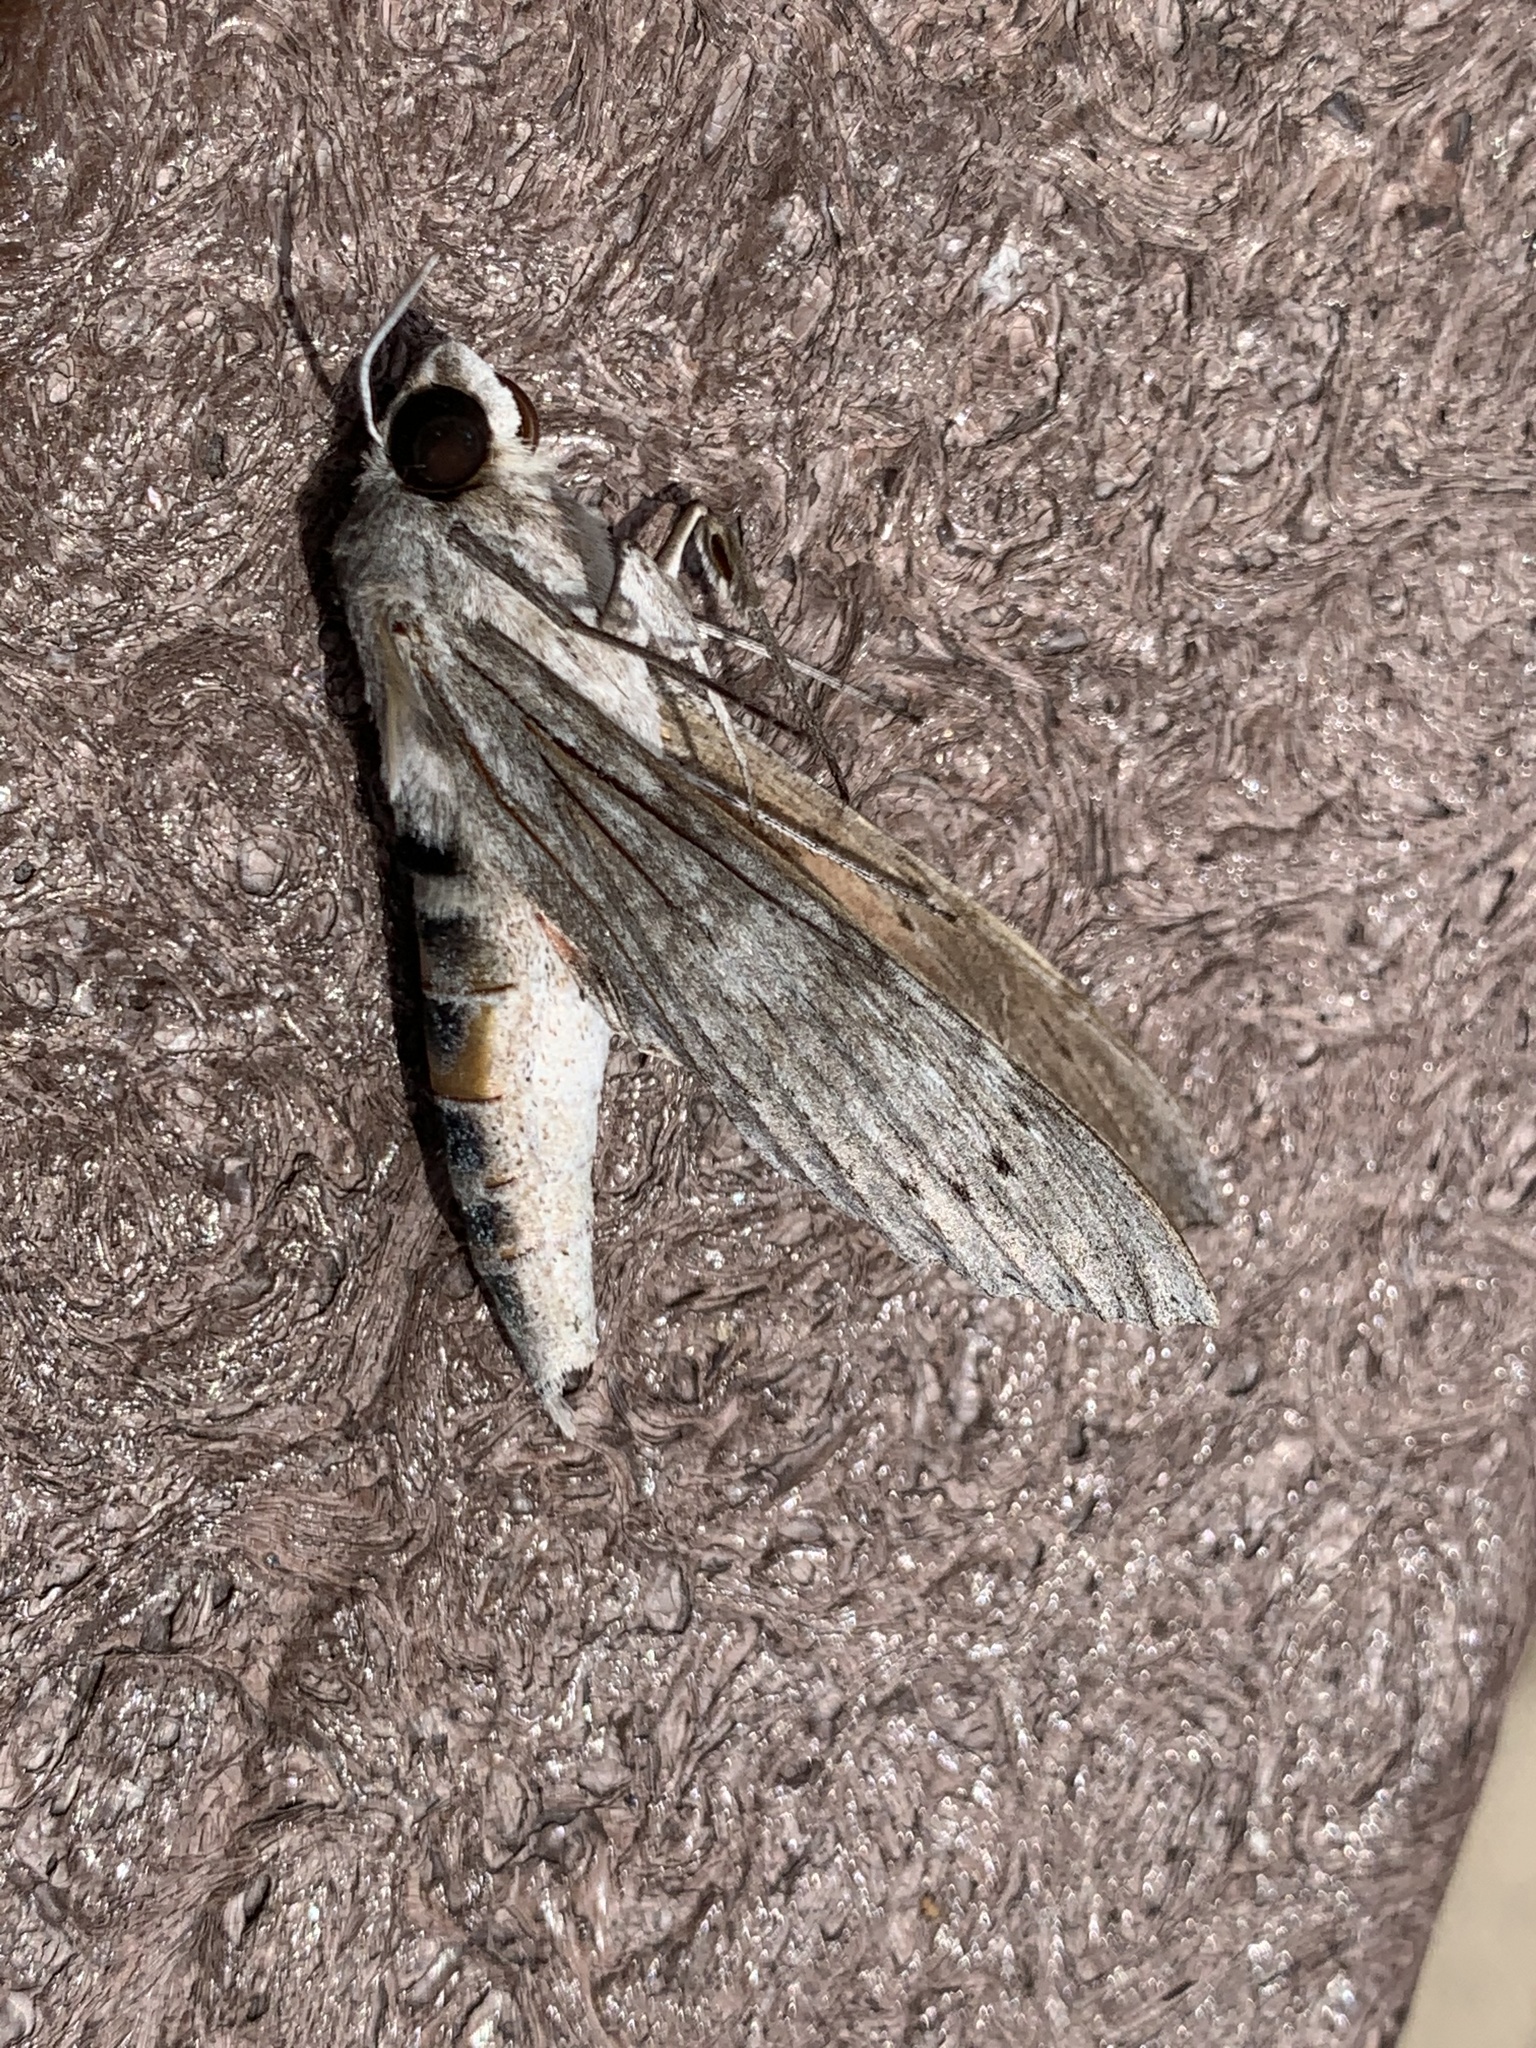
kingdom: Animalia
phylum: Arthropoda
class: Insecta
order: Lepidoptera
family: Sphingidae
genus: Erinnyis
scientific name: Erinnyis ello
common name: Ello sphinx
